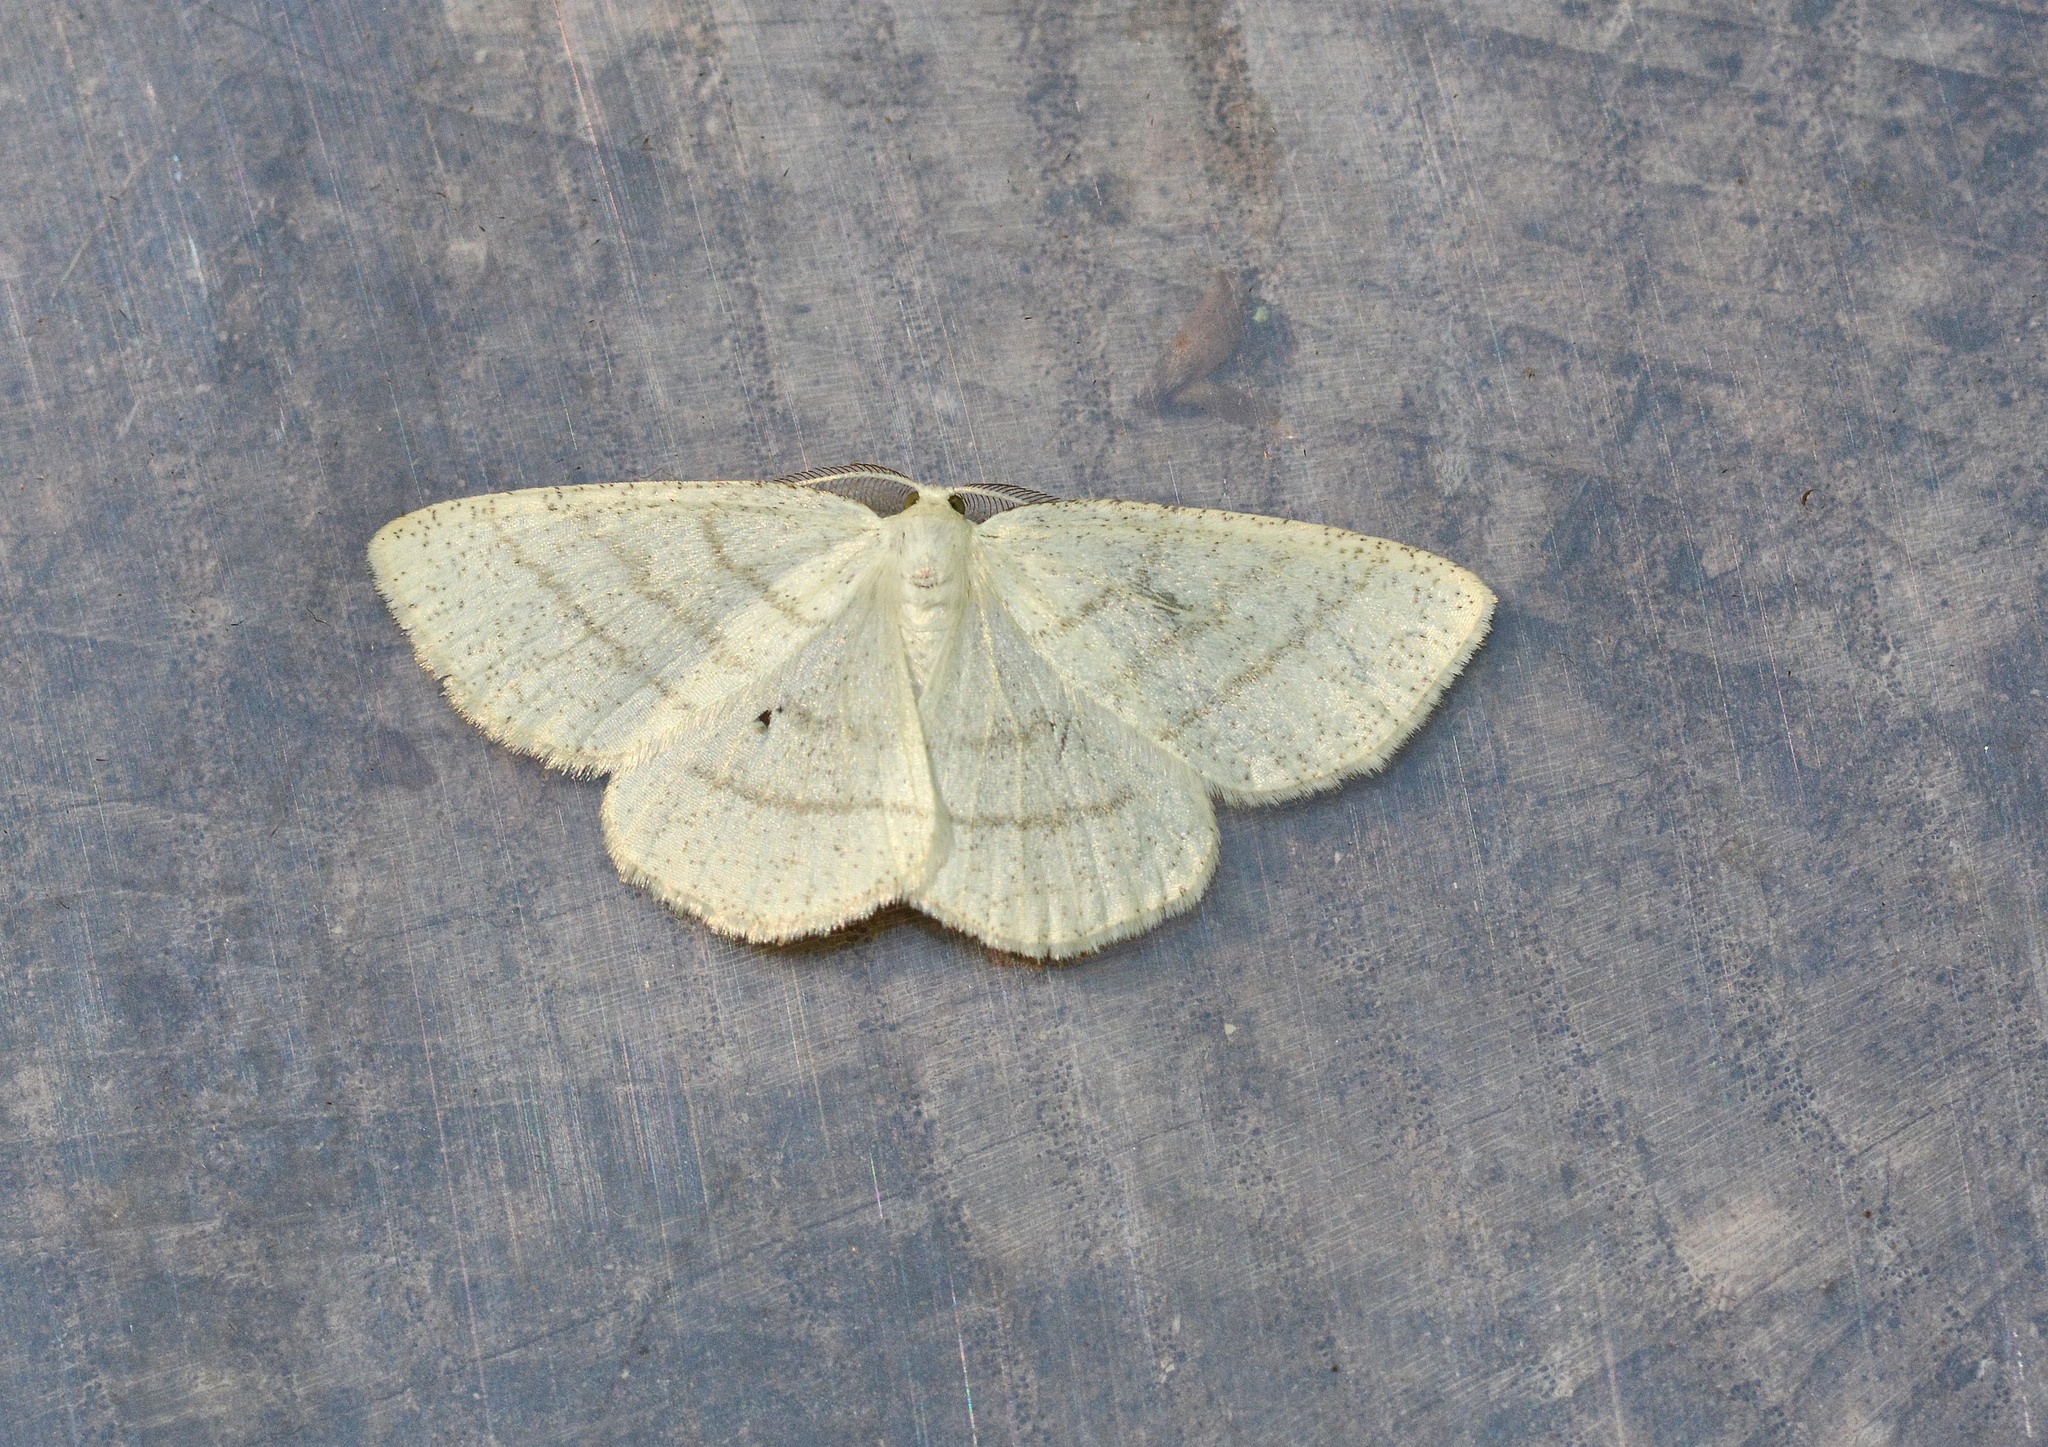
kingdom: Animalia
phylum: Arthropoda
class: Insecta
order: Lepidoptera
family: Geometridae
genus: Cabera
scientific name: Cabera pusaria
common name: Common white wave
